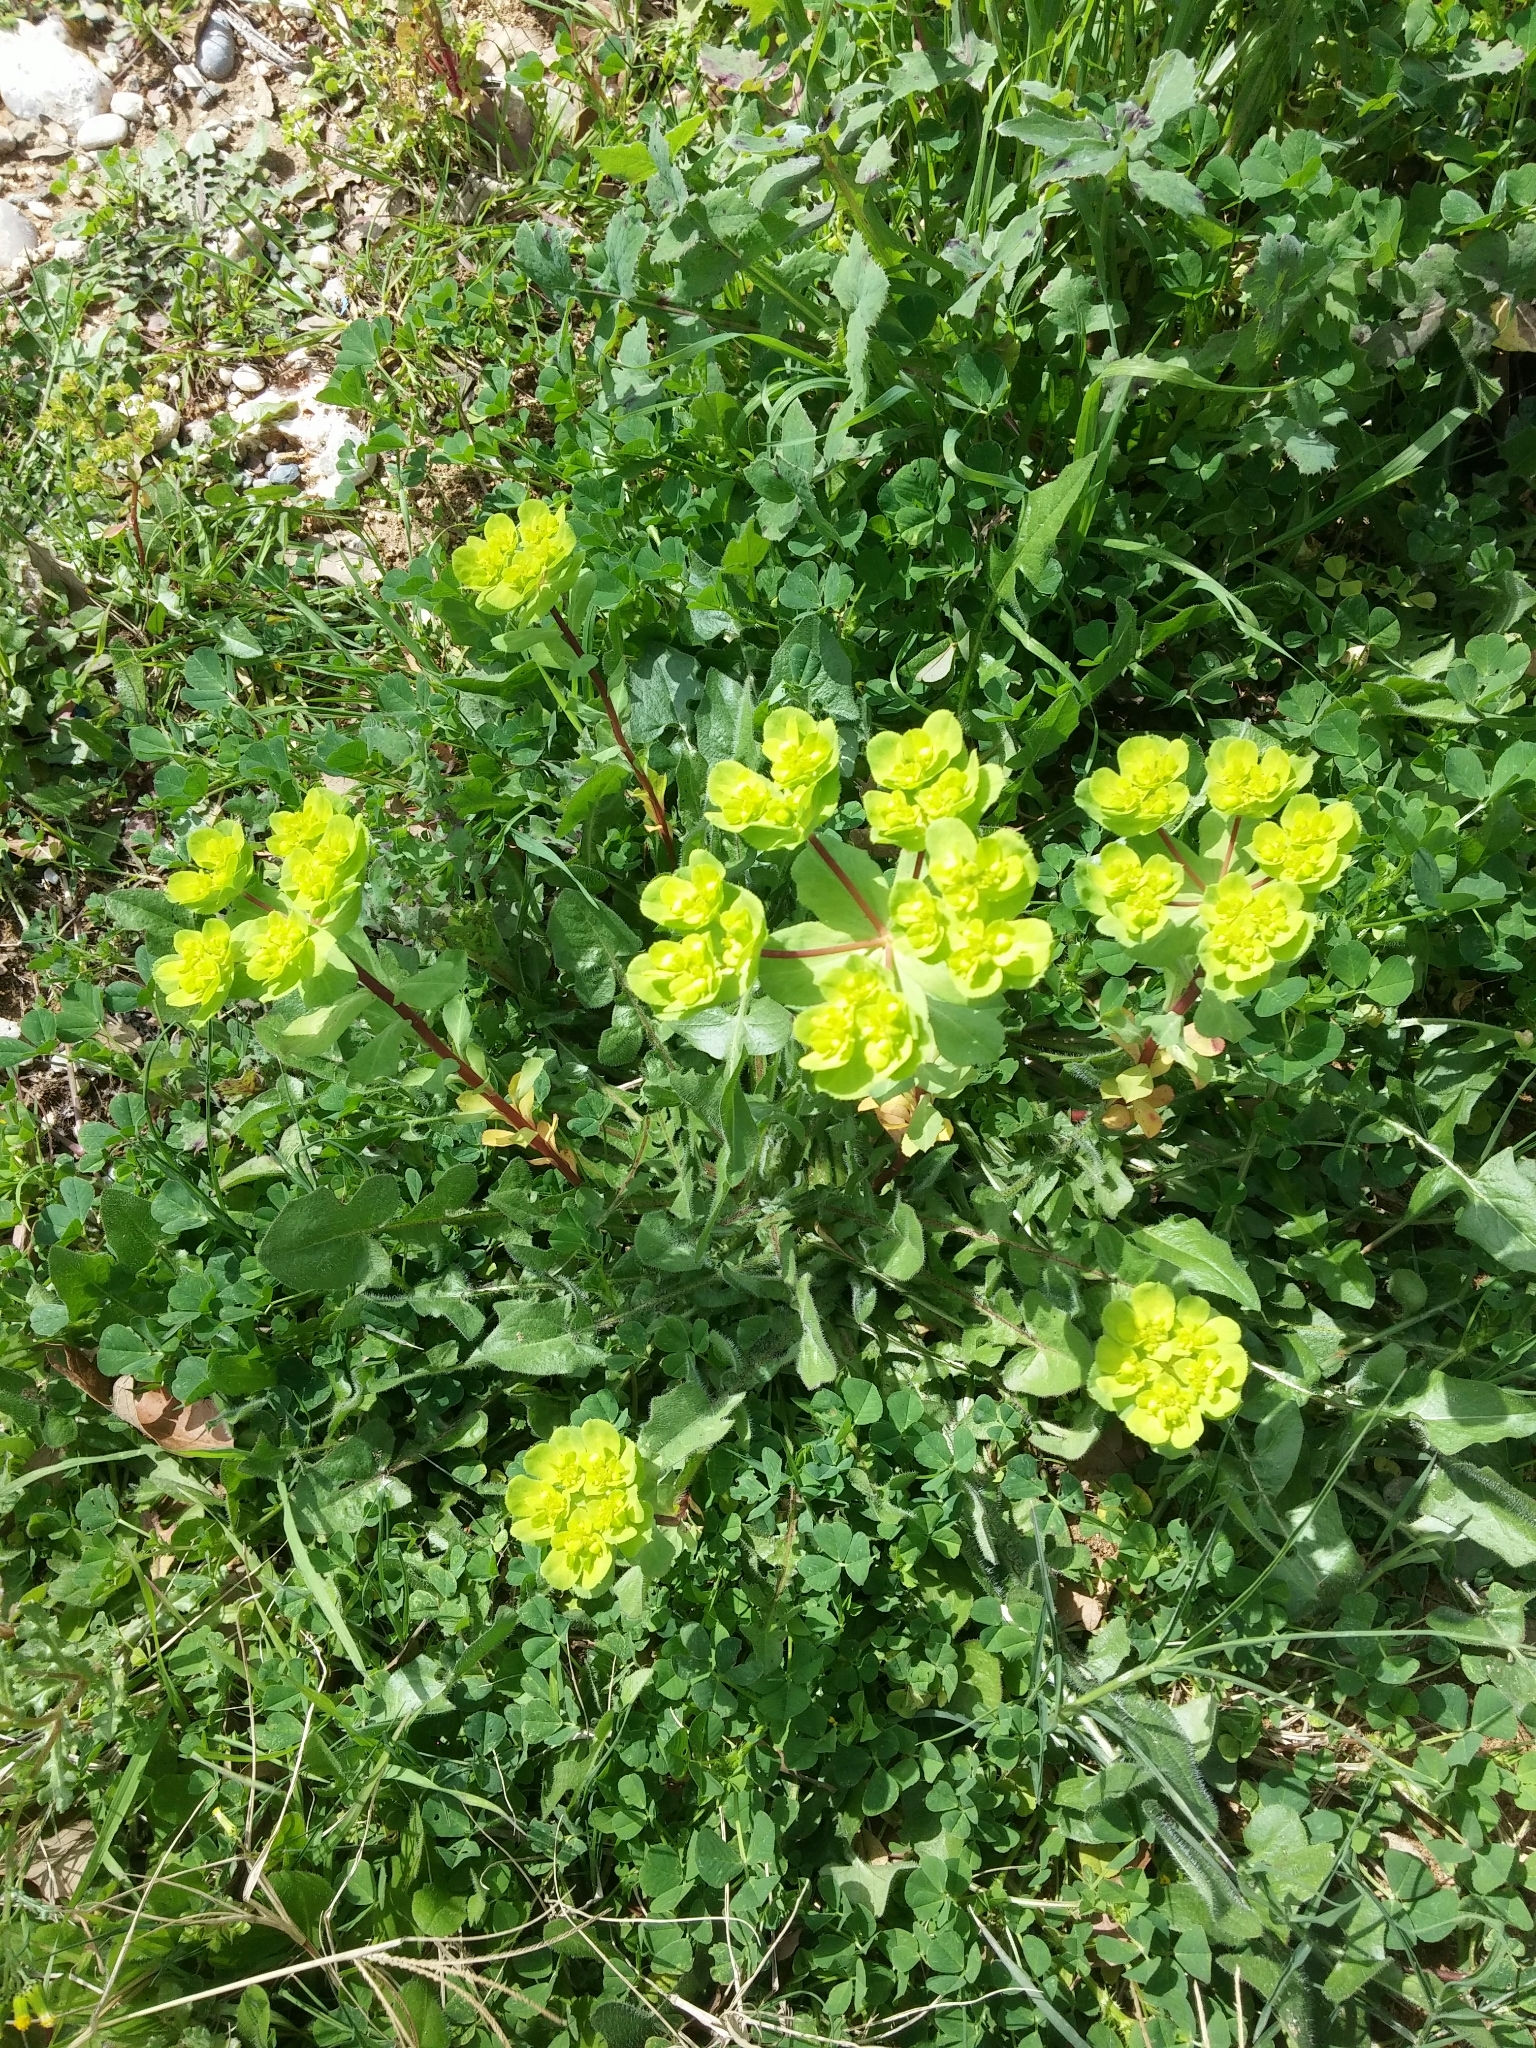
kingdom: Plantae
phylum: Tracheophyta
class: Magnoliopsida
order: Malpighiales
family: Euphorbiaceae
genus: Euphorbia
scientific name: Euphorbia helioscopia
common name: Sun spurge
